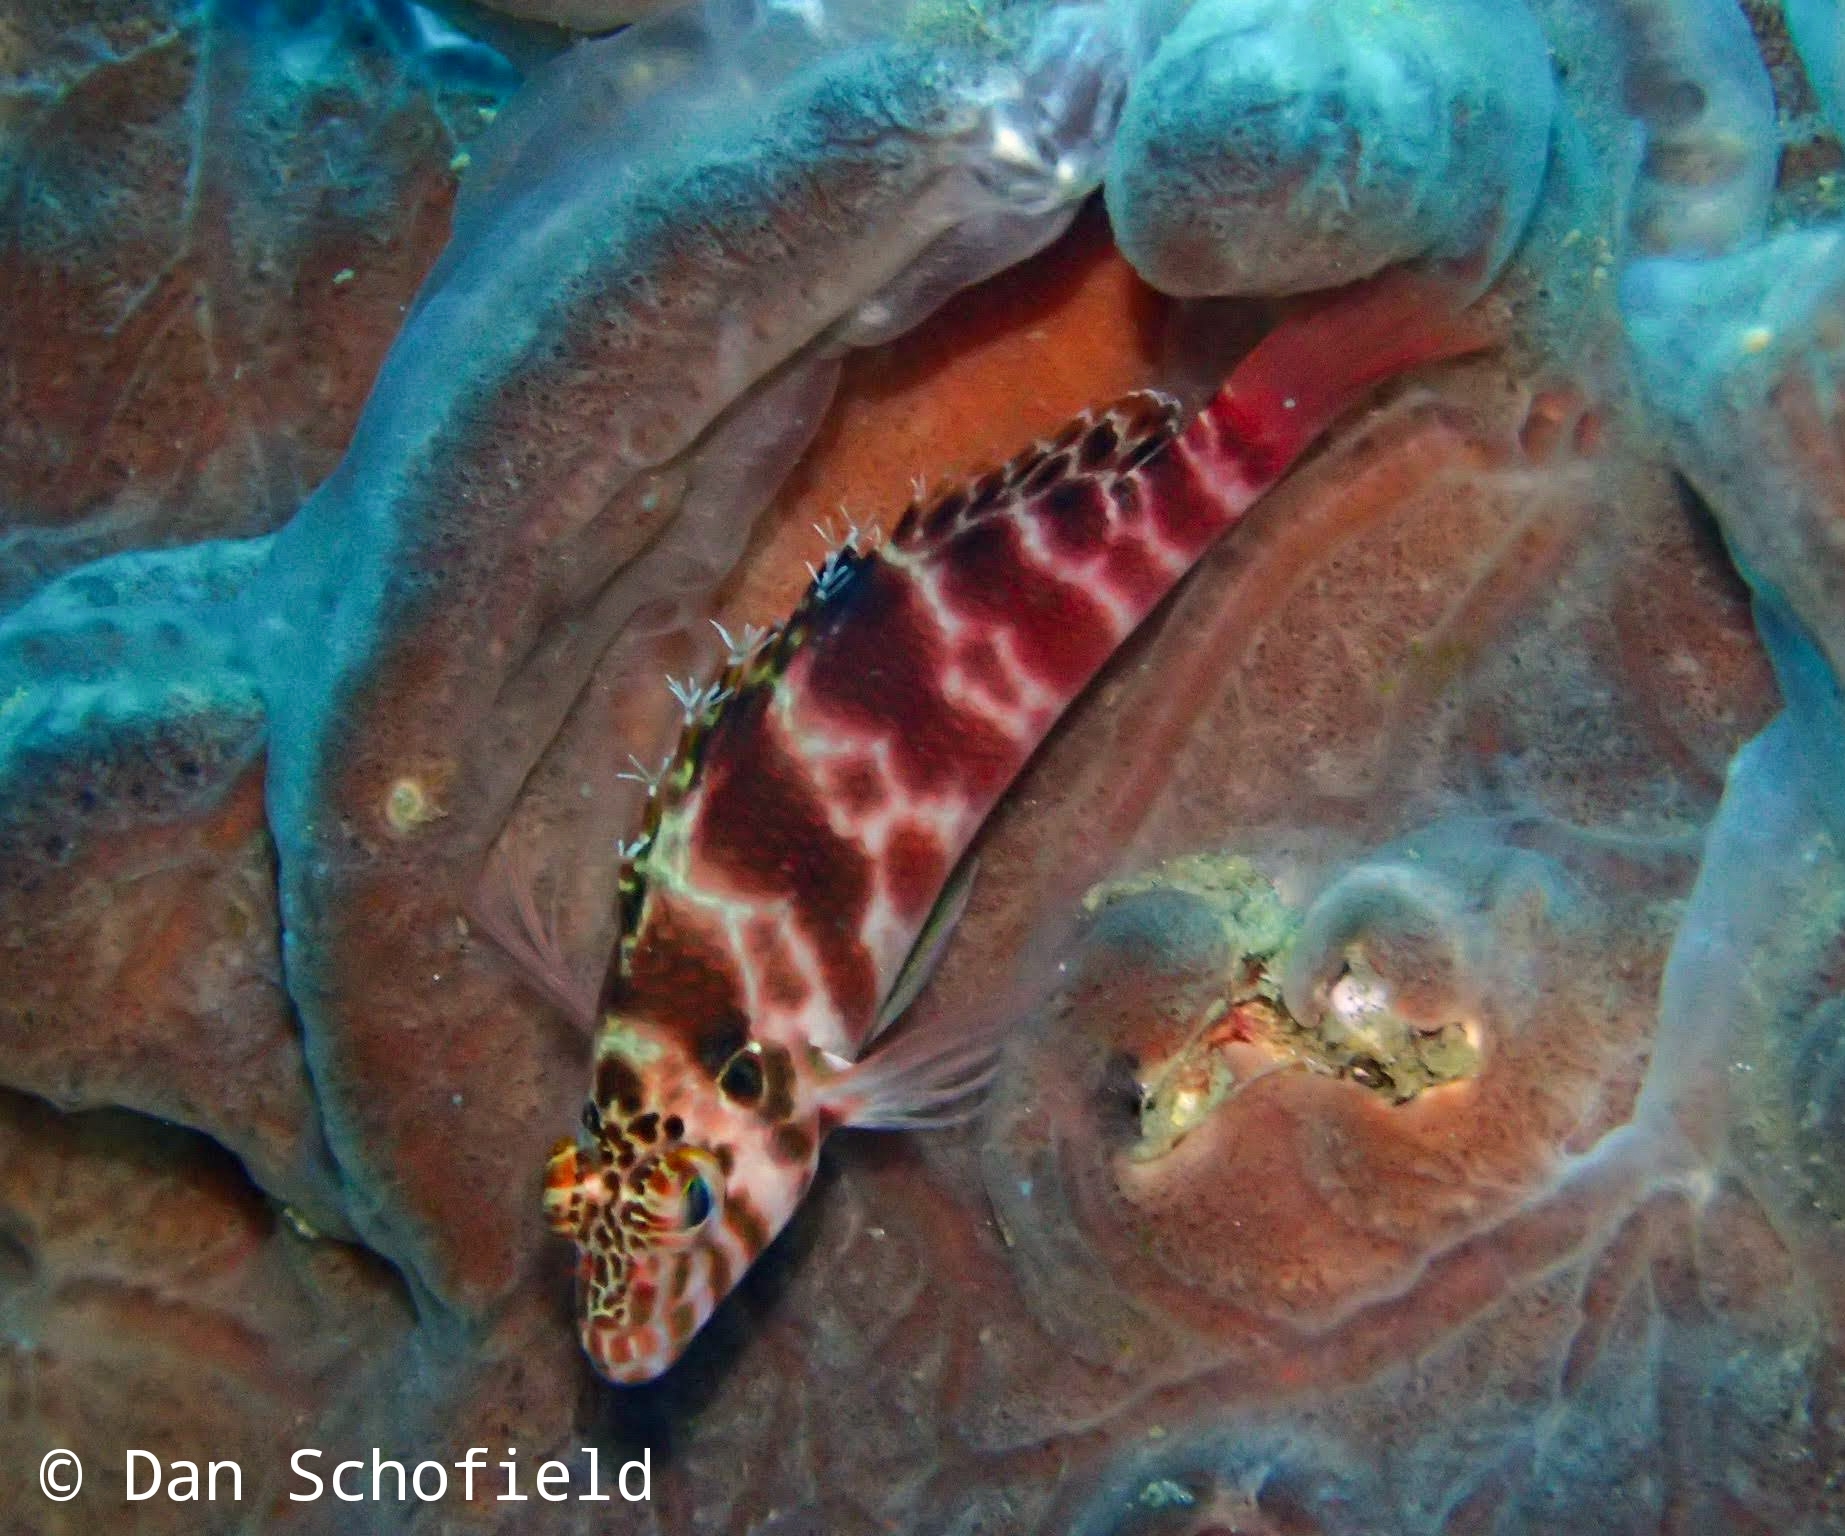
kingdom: Animalia
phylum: Chordata
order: Perciformes
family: Cirrhitidae
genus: Cirrhitichthys
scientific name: Cirrhitichthys aprinus
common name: Blotched hawkfish
